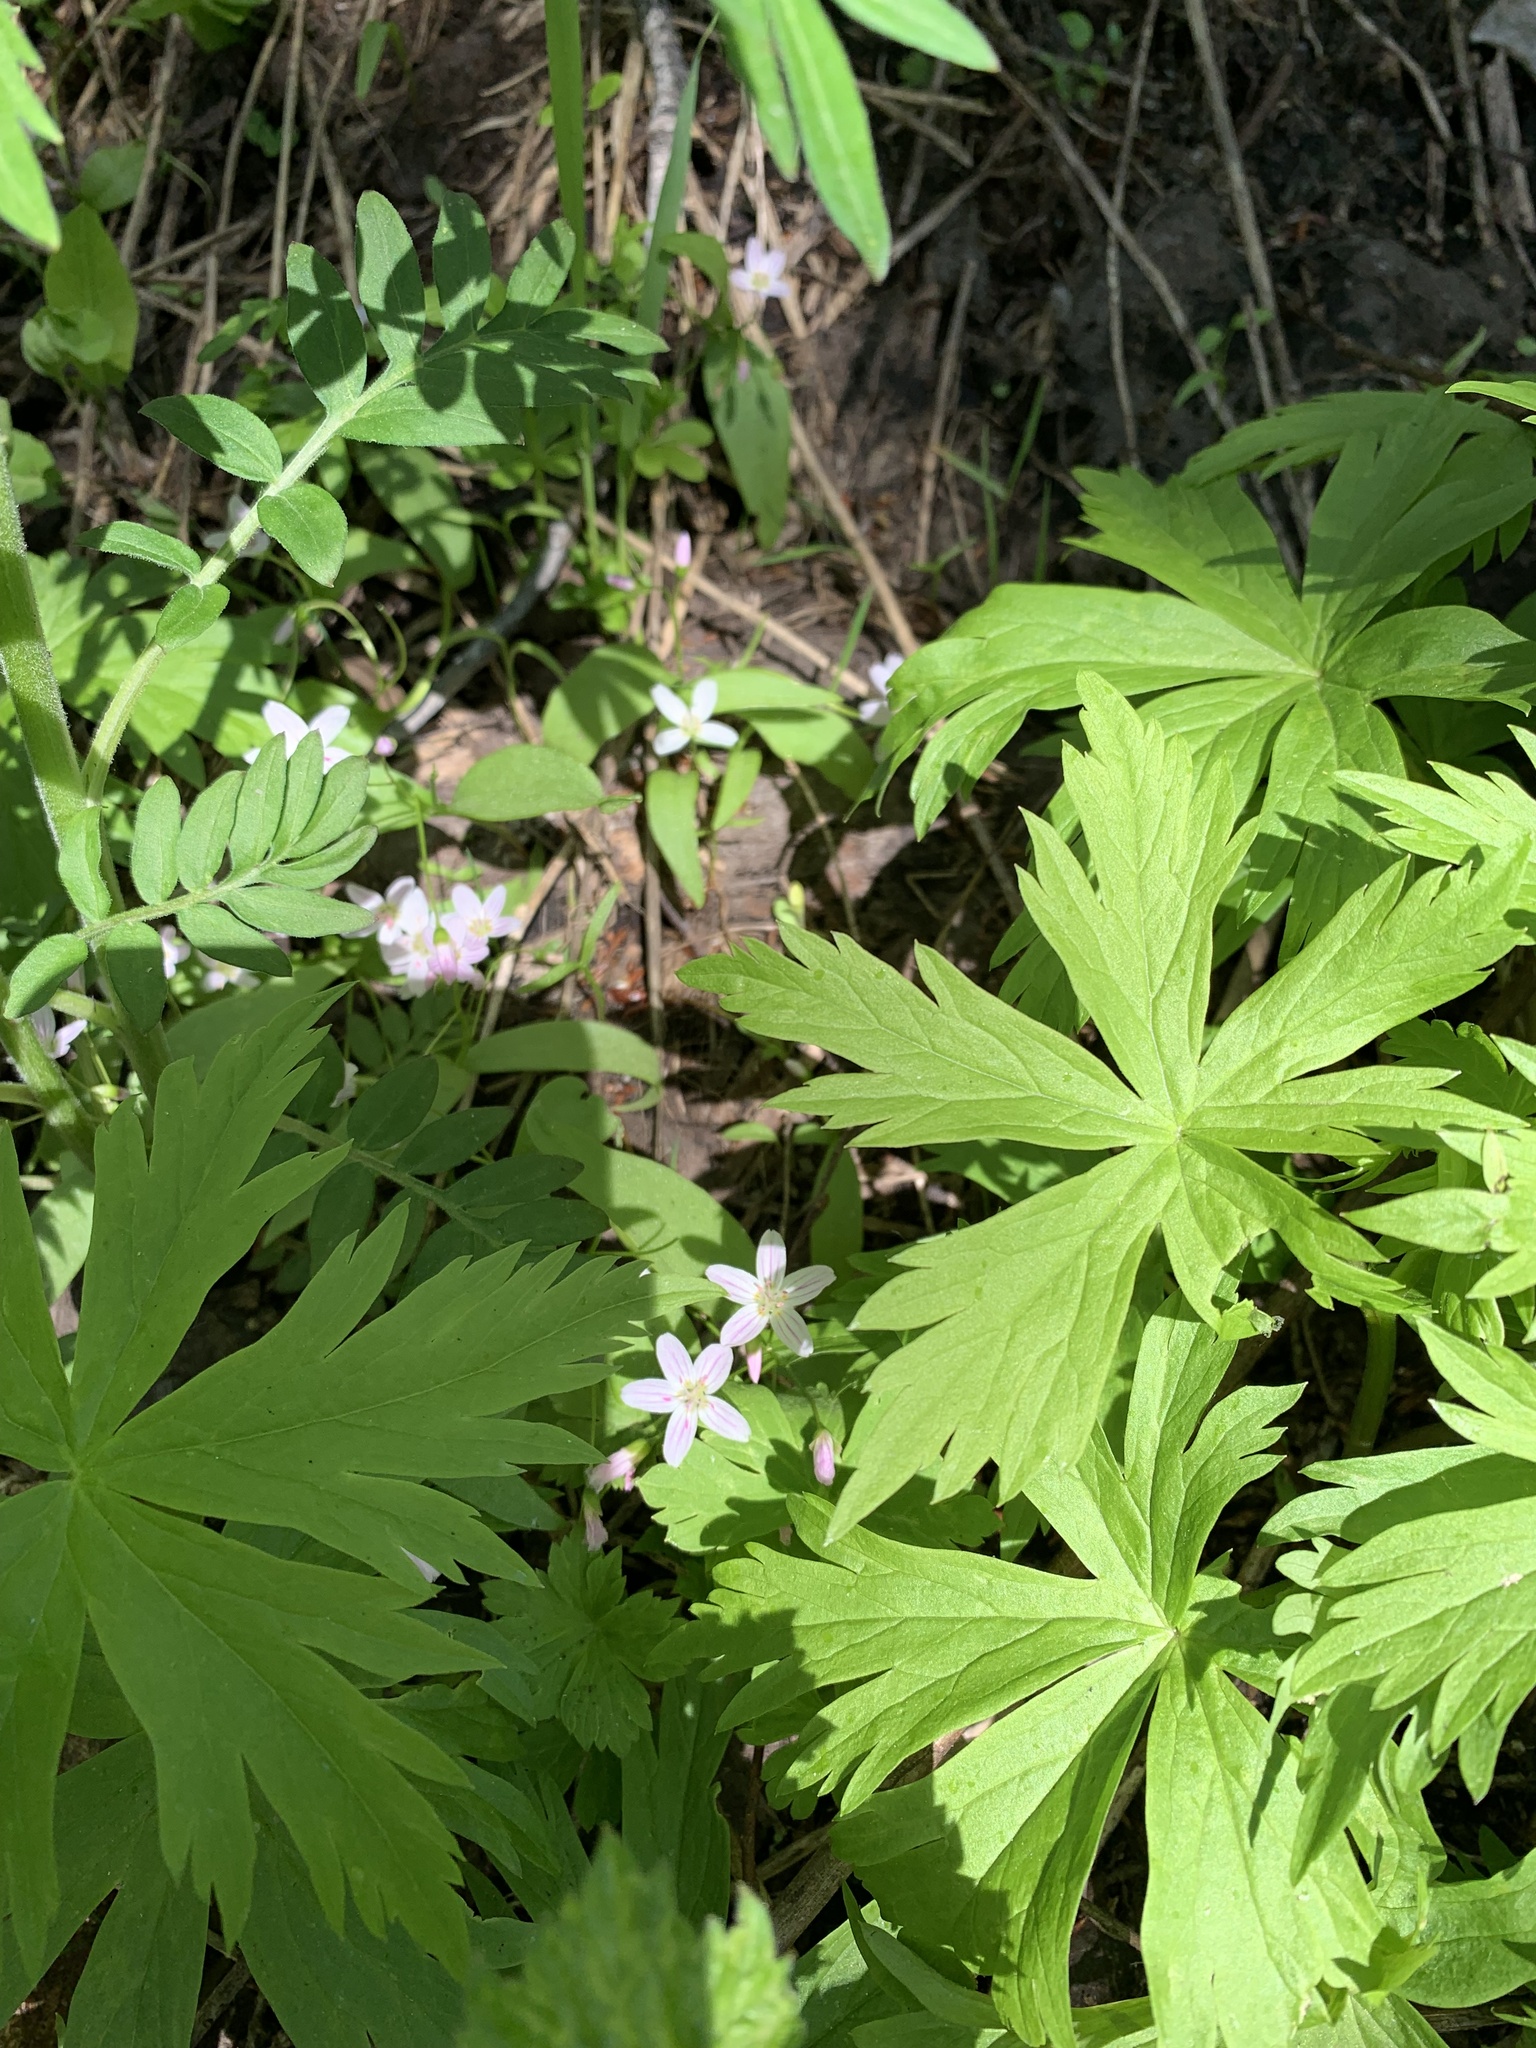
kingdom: Plantae
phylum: Tracheophyta
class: Magnoliopsida
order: Caryophyllales
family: Montiaceae
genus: Claytonia
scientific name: Claytonia lanceolata
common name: Western spring-beauty
